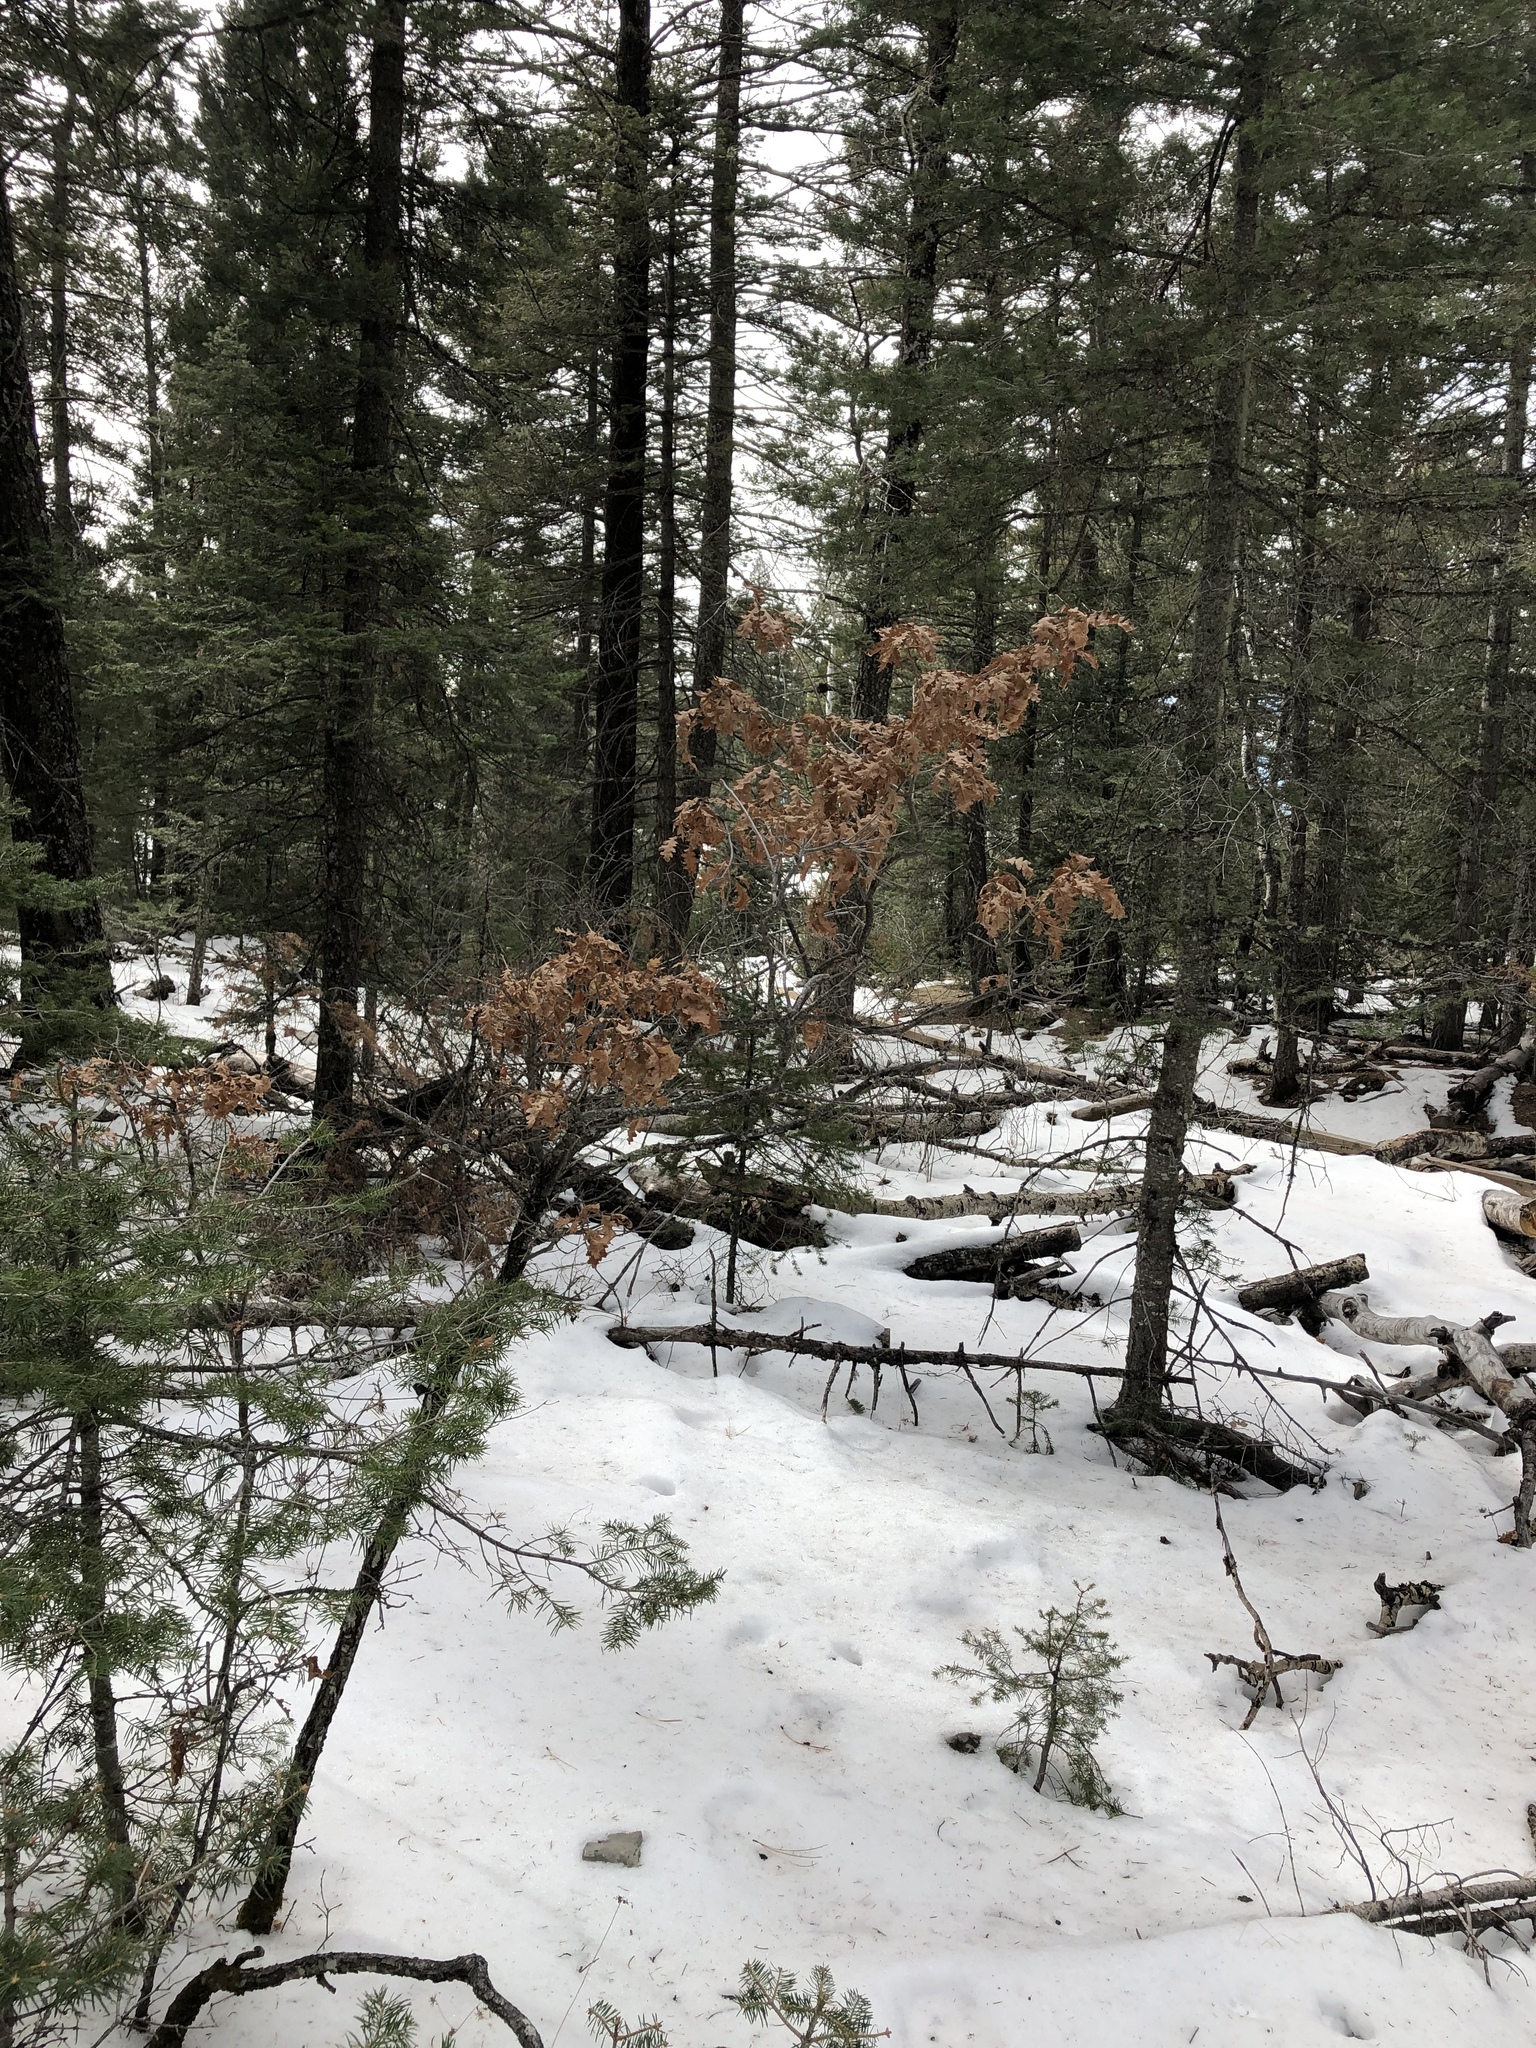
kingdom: Plantae
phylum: Tracheophyta
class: Magnoliopsida
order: Fagales
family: Fagaceae
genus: Quercus
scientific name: Quercus gambelii
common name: Gambel oak
